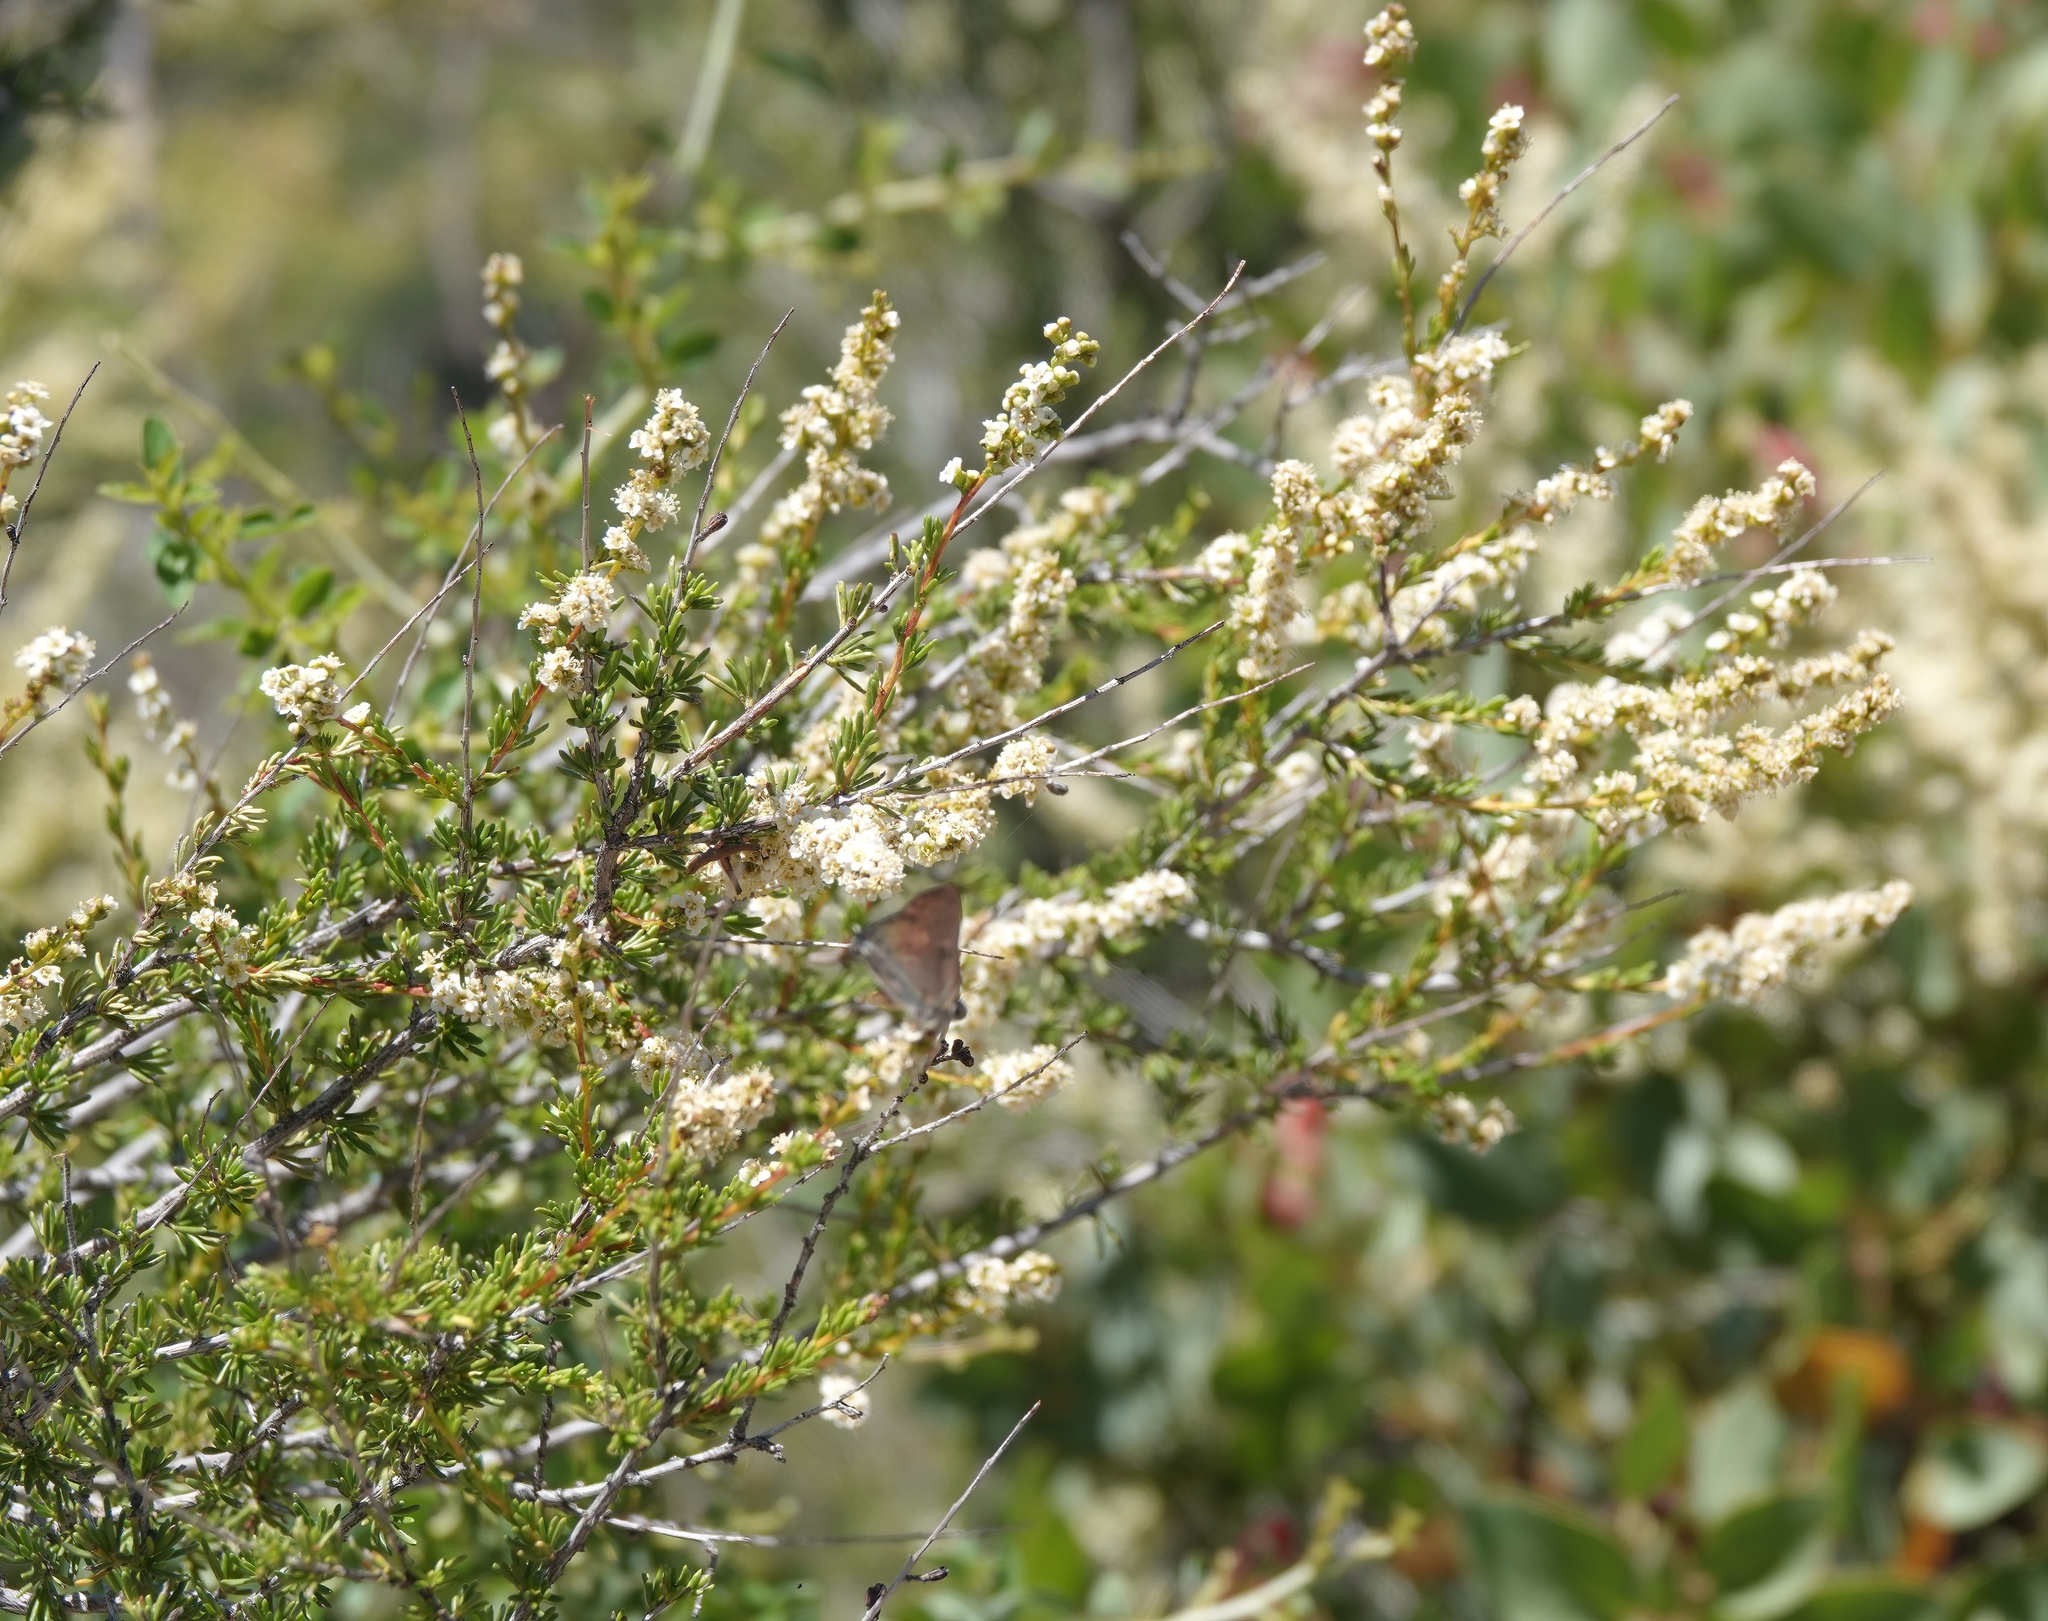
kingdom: Plantae
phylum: Tracheophyta
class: Magnoliopsida
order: Rosales
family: Rosaceae
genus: Adenostoma
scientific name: Adenostoma fasciculatum
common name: Chamise
